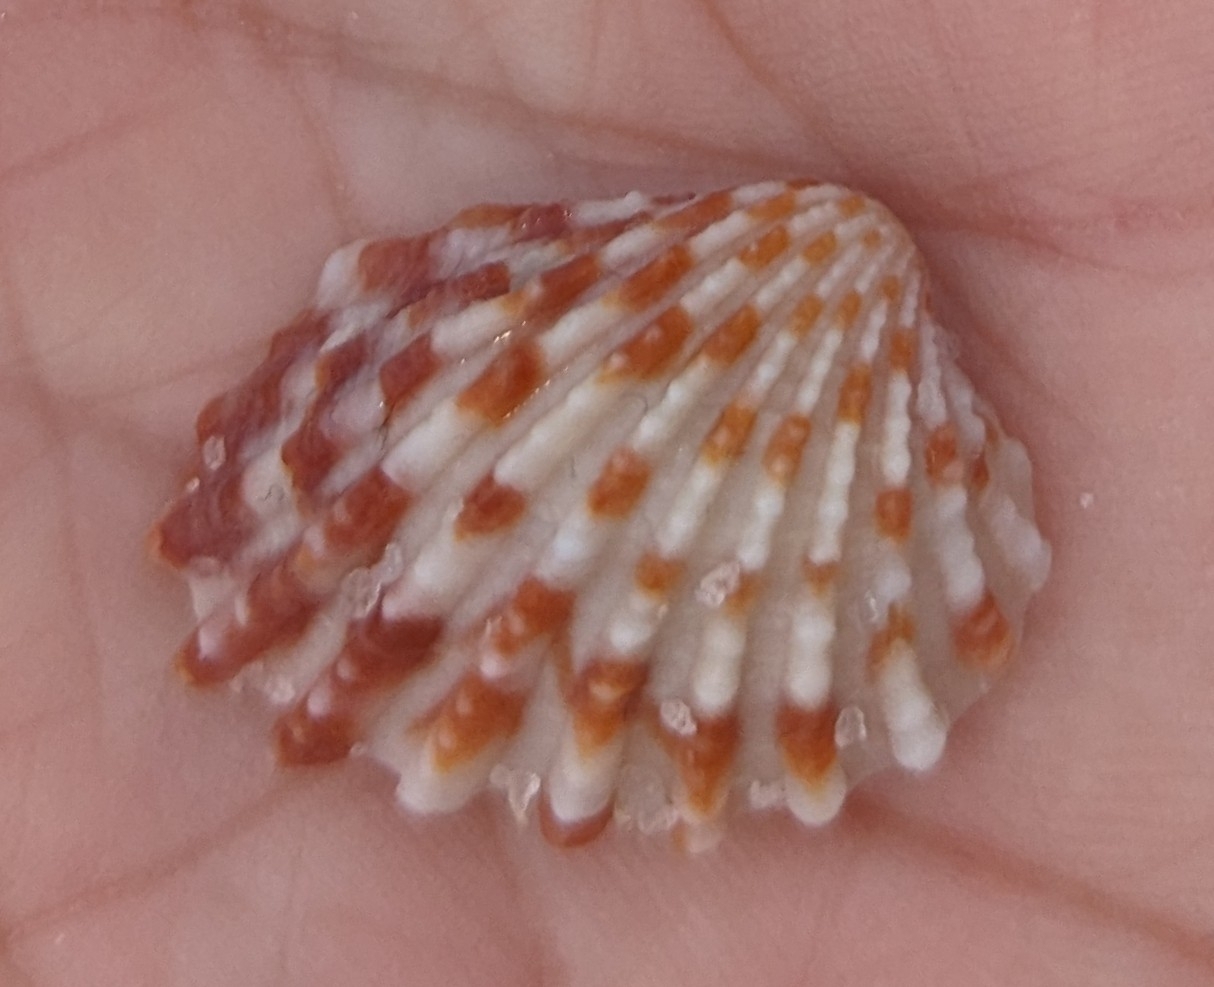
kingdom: Animalia
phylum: Mollusca
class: Bivalvia
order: Carditida
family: Carditidae
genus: Cardites
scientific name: Cardites floridanus
